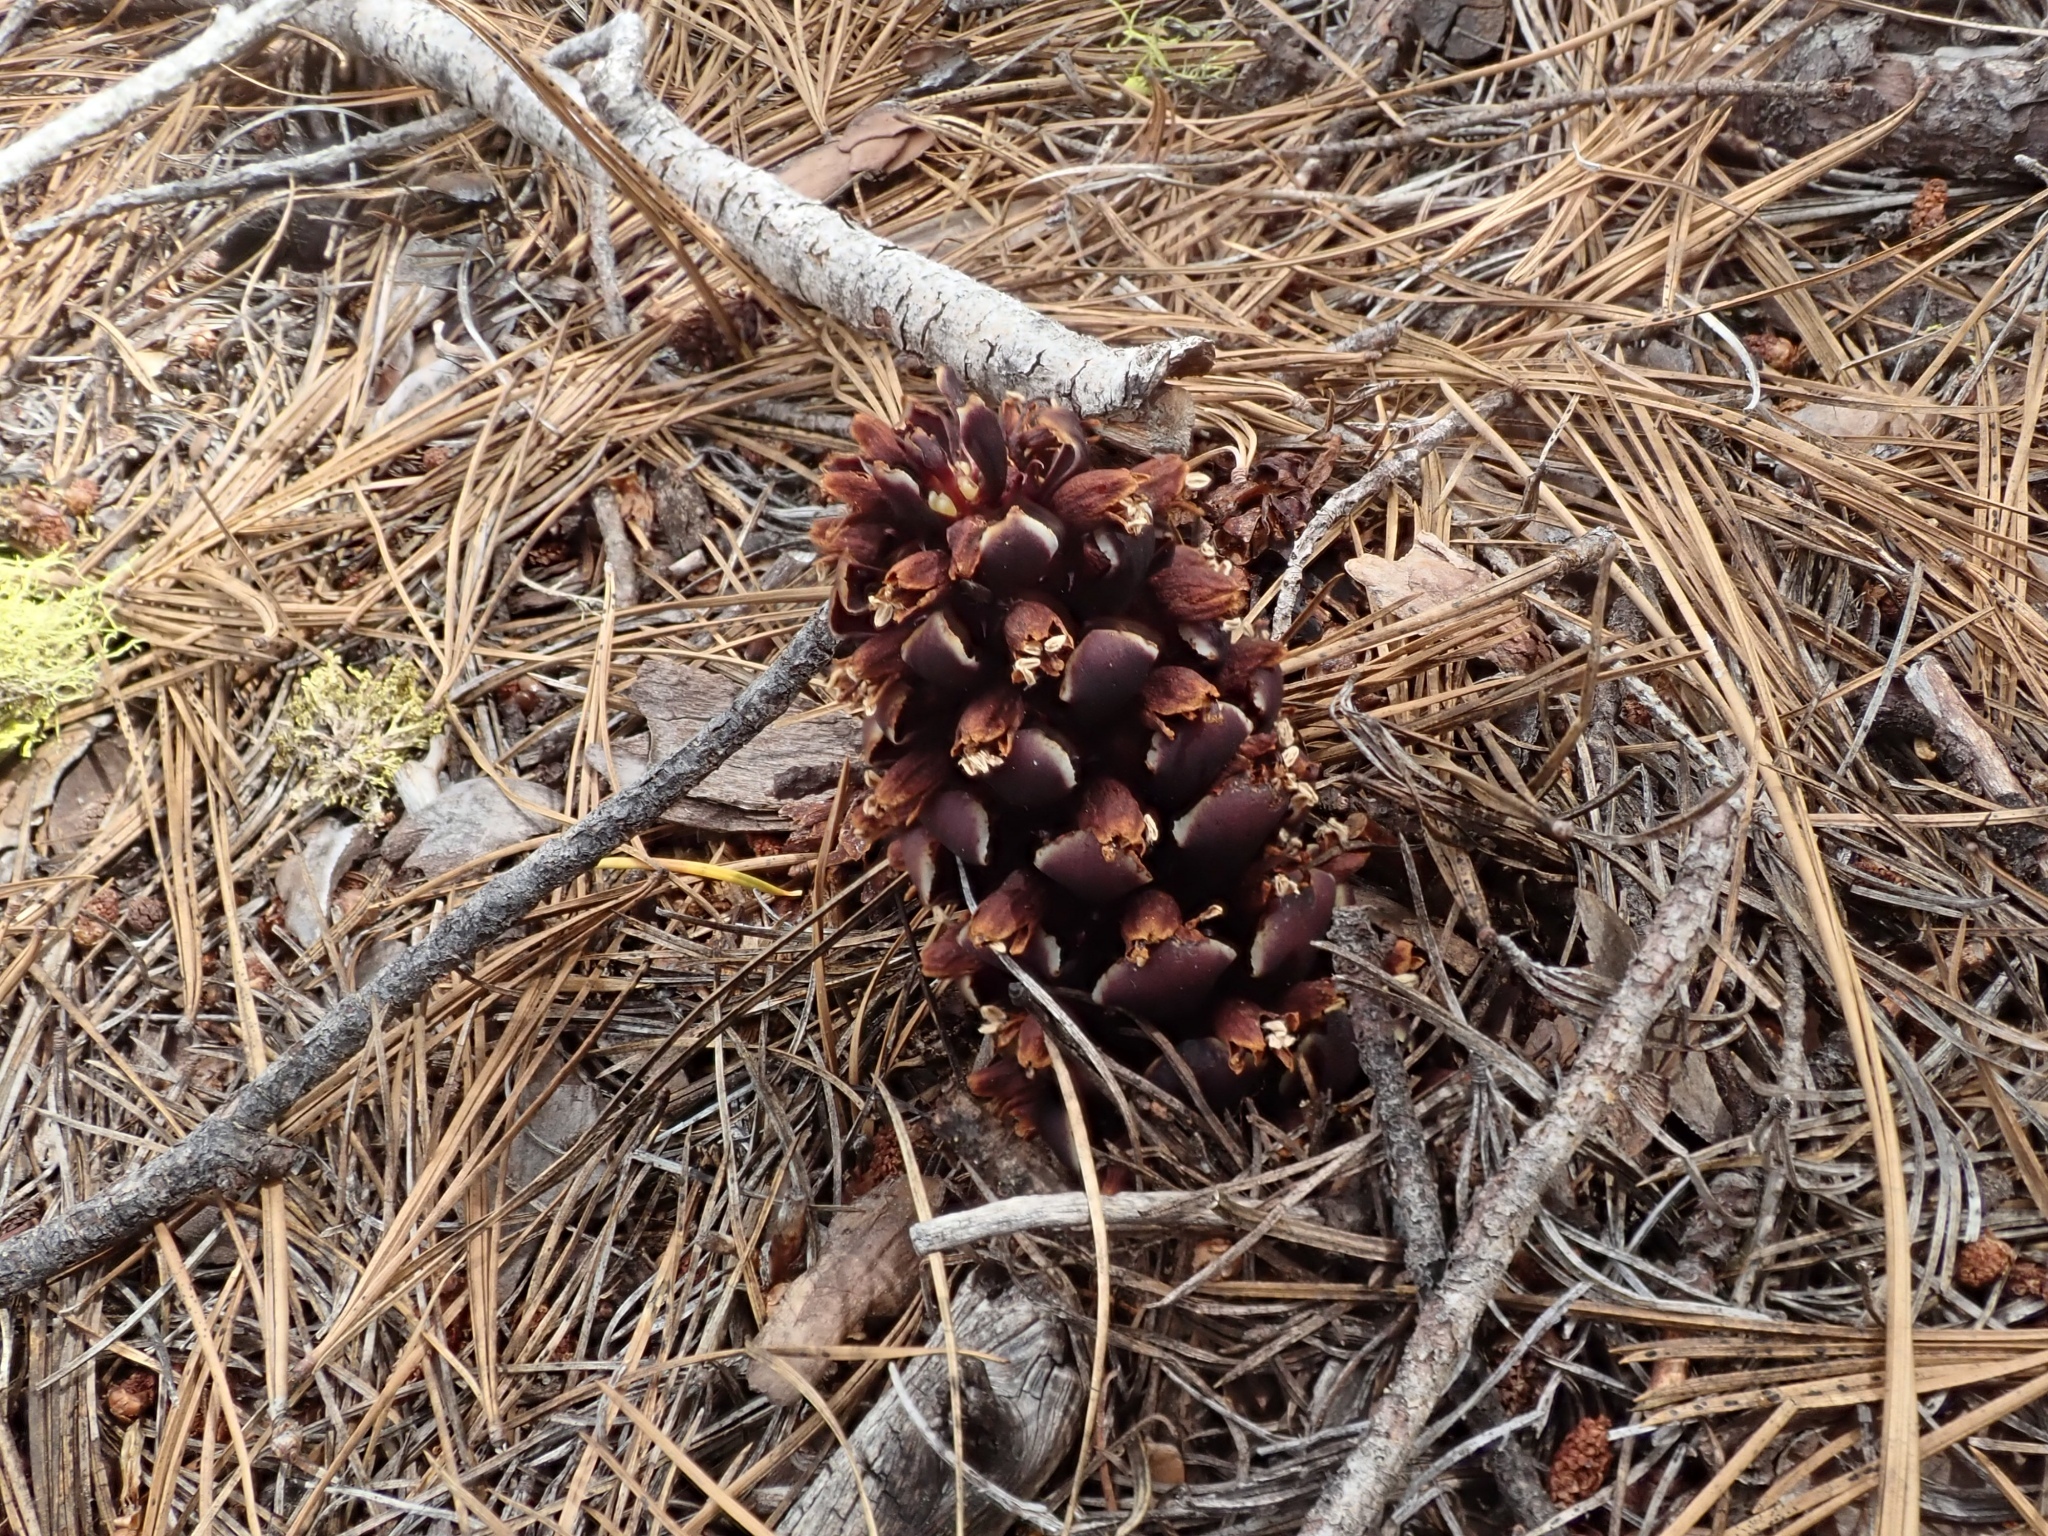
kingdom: Plantae
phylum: Tracheophyta
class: Magnoliopsida
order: Lamiales
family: Orobanchaceae
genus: Kopsiopsis
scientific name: Kopsiopsis strobilacea
